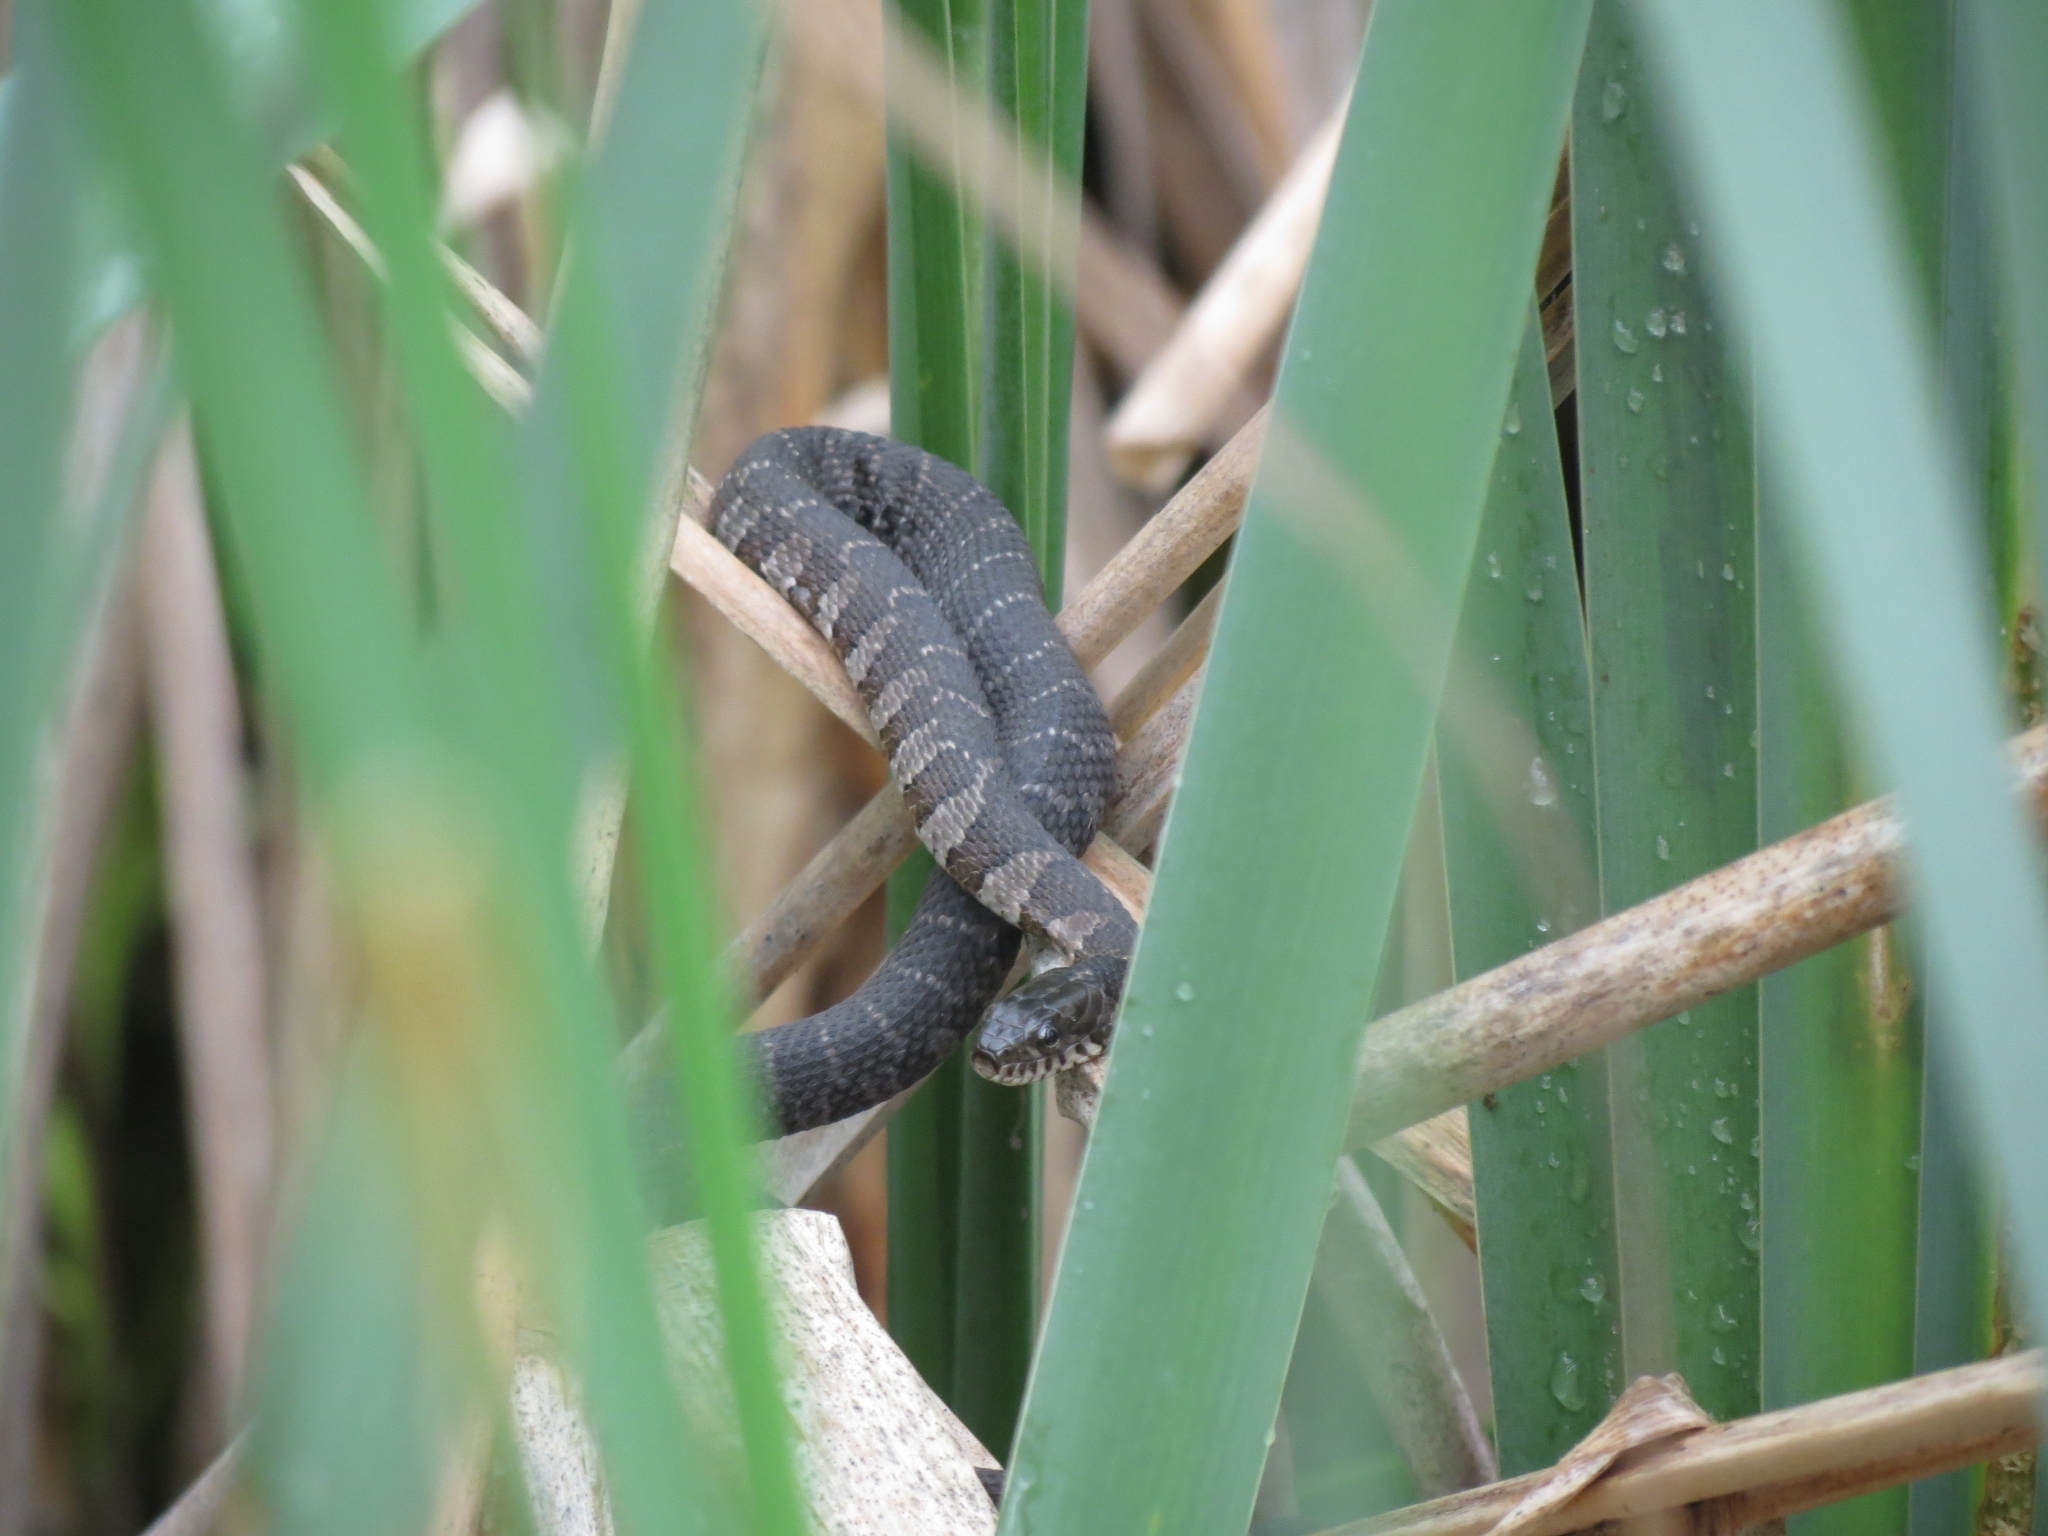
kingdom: Animalia
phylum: Chordata
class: Squamata
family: Colubridae
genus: Nerodia
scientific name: Nerodia sipedon
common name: Northern water snake
